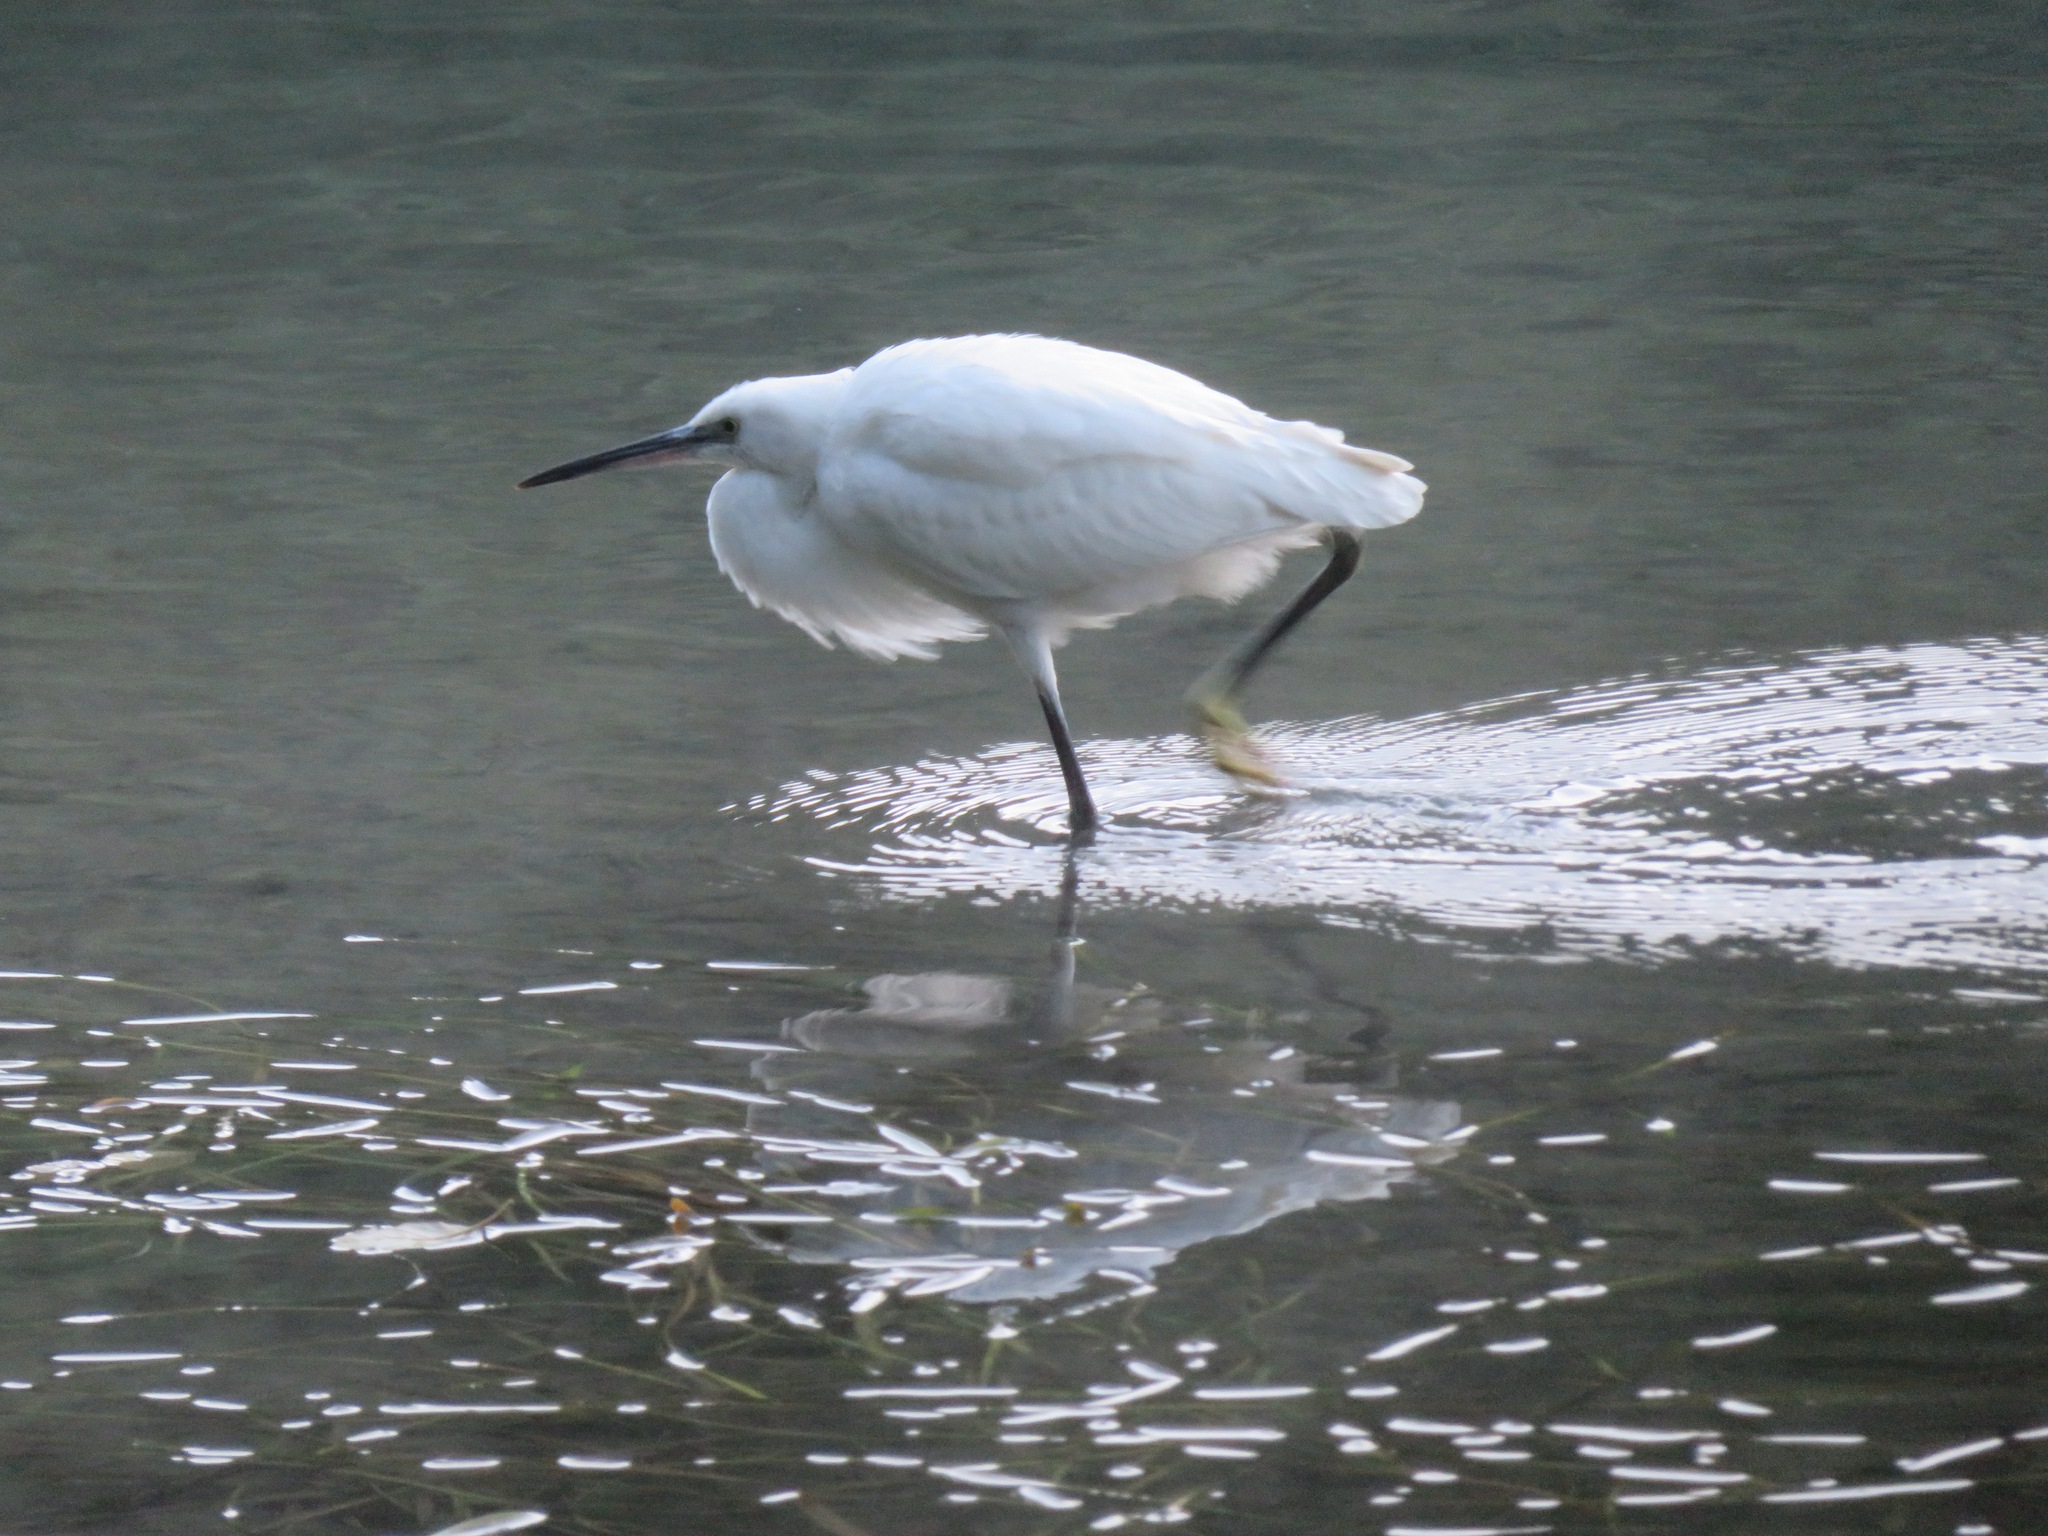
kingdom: Animalia
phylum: Chordata
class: Aves
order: Pelecaniformes
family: Ardeidae
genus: Egretta
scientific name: Egretta garzetta
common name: Little egret
